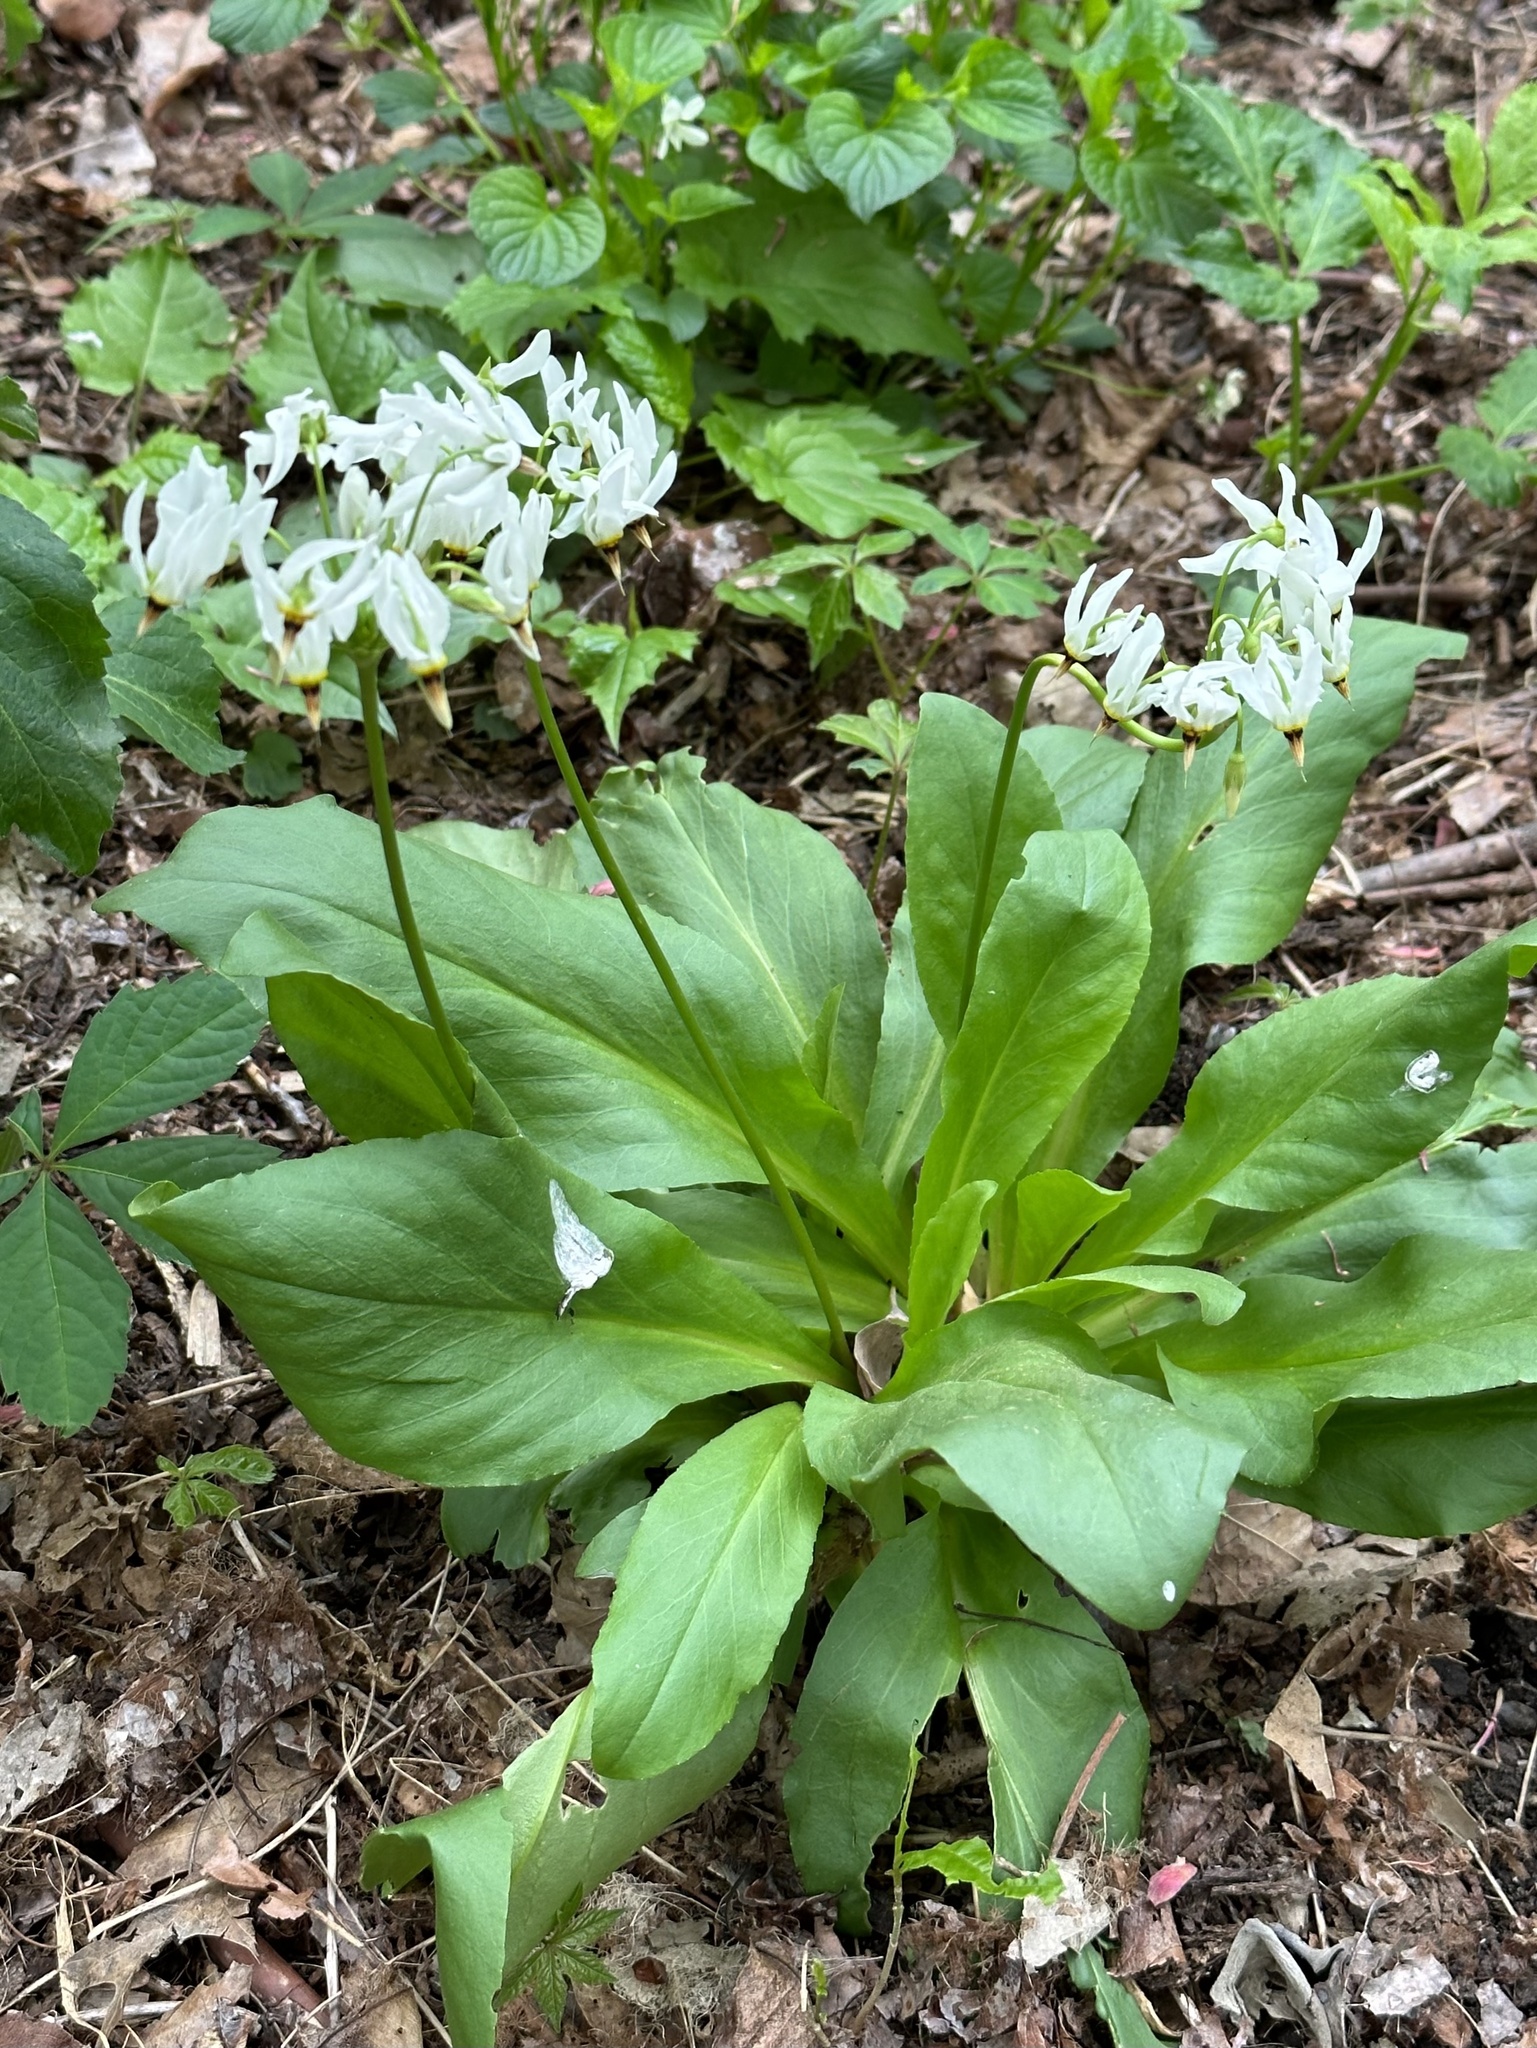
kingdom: Plantae
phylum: Tracheophyta
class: Magnoliopsida
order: Ericales
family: Primulaceae
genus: Dodecatheon
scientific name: Dodecatheon meadia
